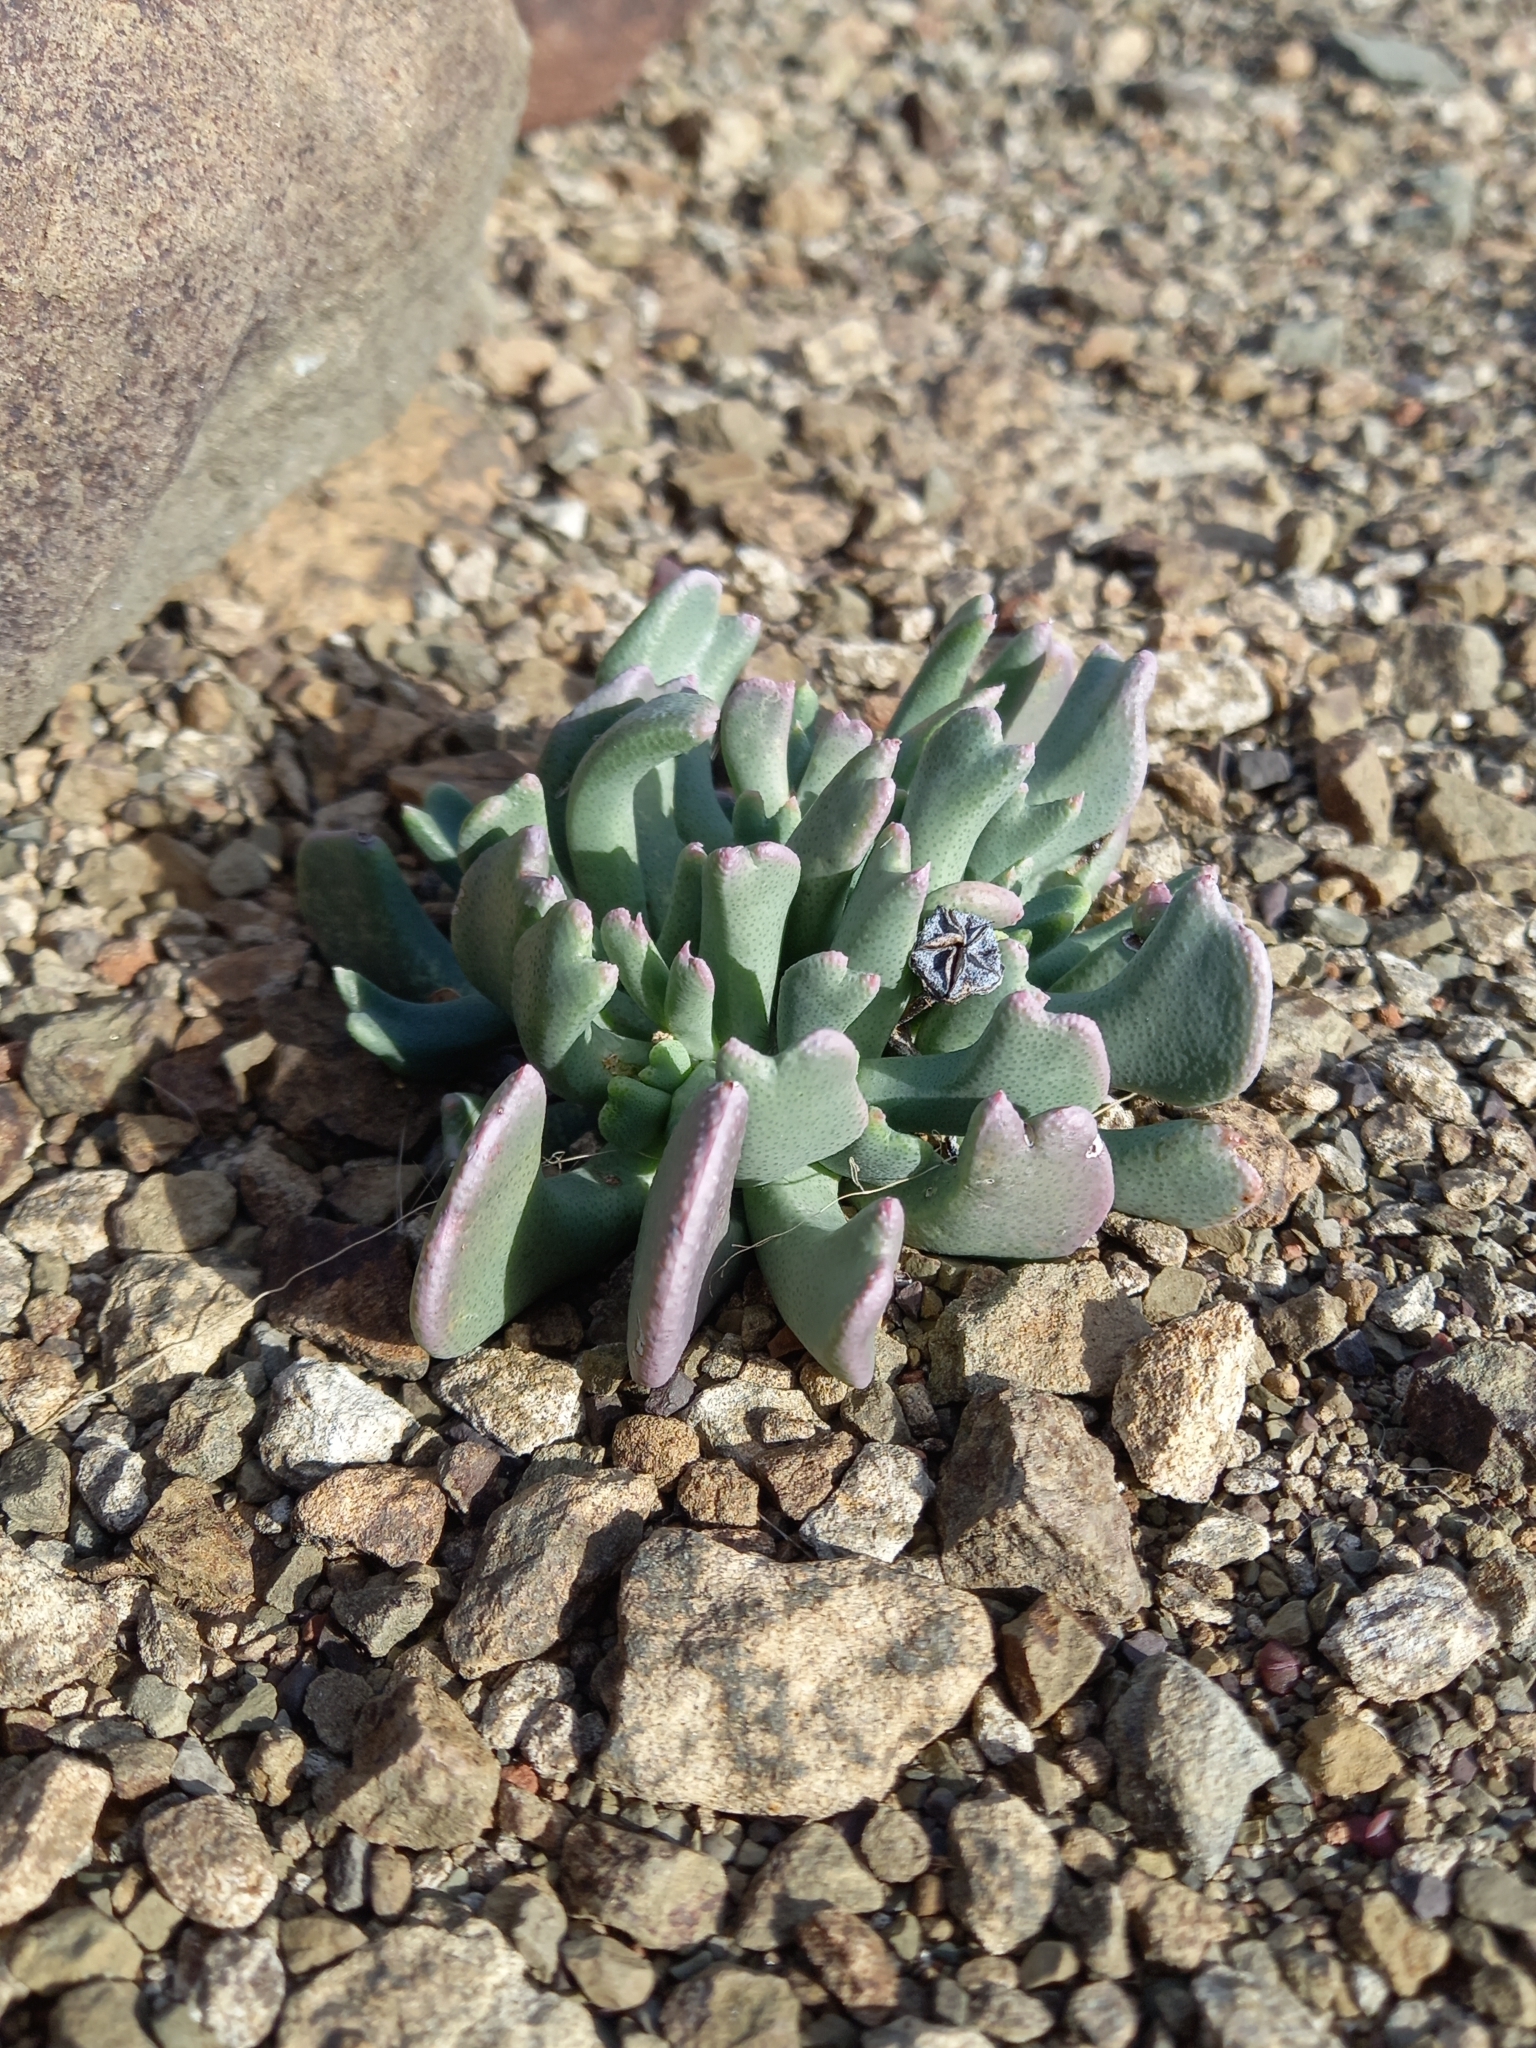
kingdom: Plantae
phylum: Tracheophyta
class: Magnoliopsida
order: Caryophyllales
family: Aizoaceae
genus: Dracophilus
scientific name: Dracophilus Rhombophyllum dolabriforme
